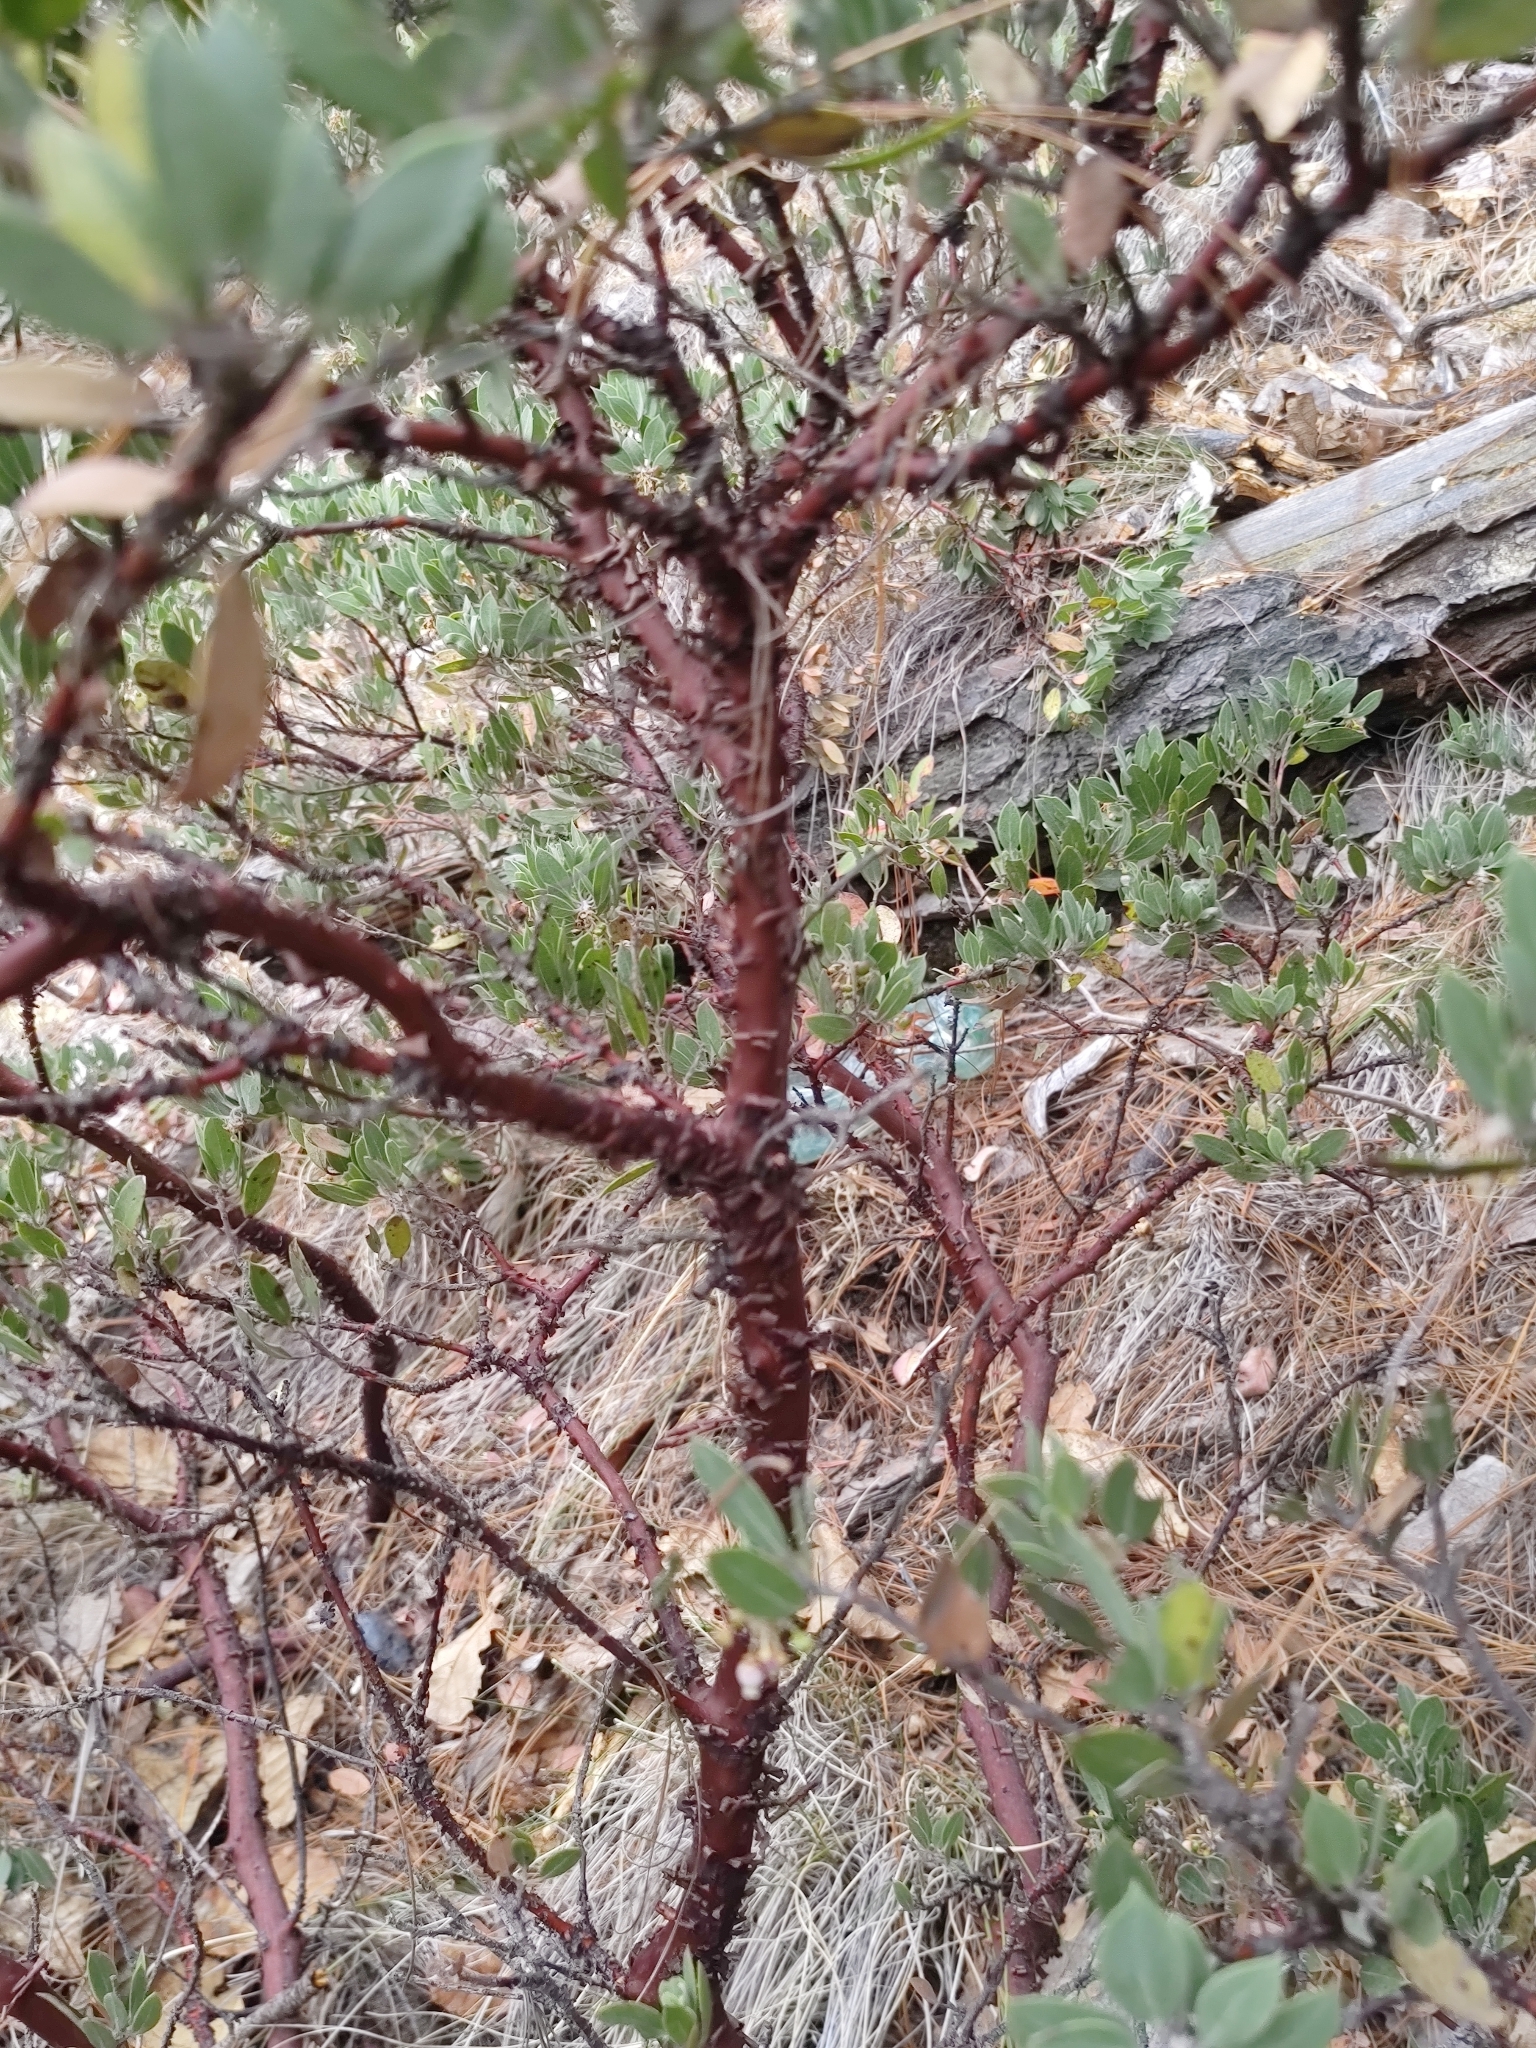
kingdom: Plantae
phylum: Tracheophyta
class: Magnoliopsida
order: Ericales
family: Ericaceae
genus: Arctostaphylos
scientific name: Arctostaphylos pungens
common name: Mexican manzanita
